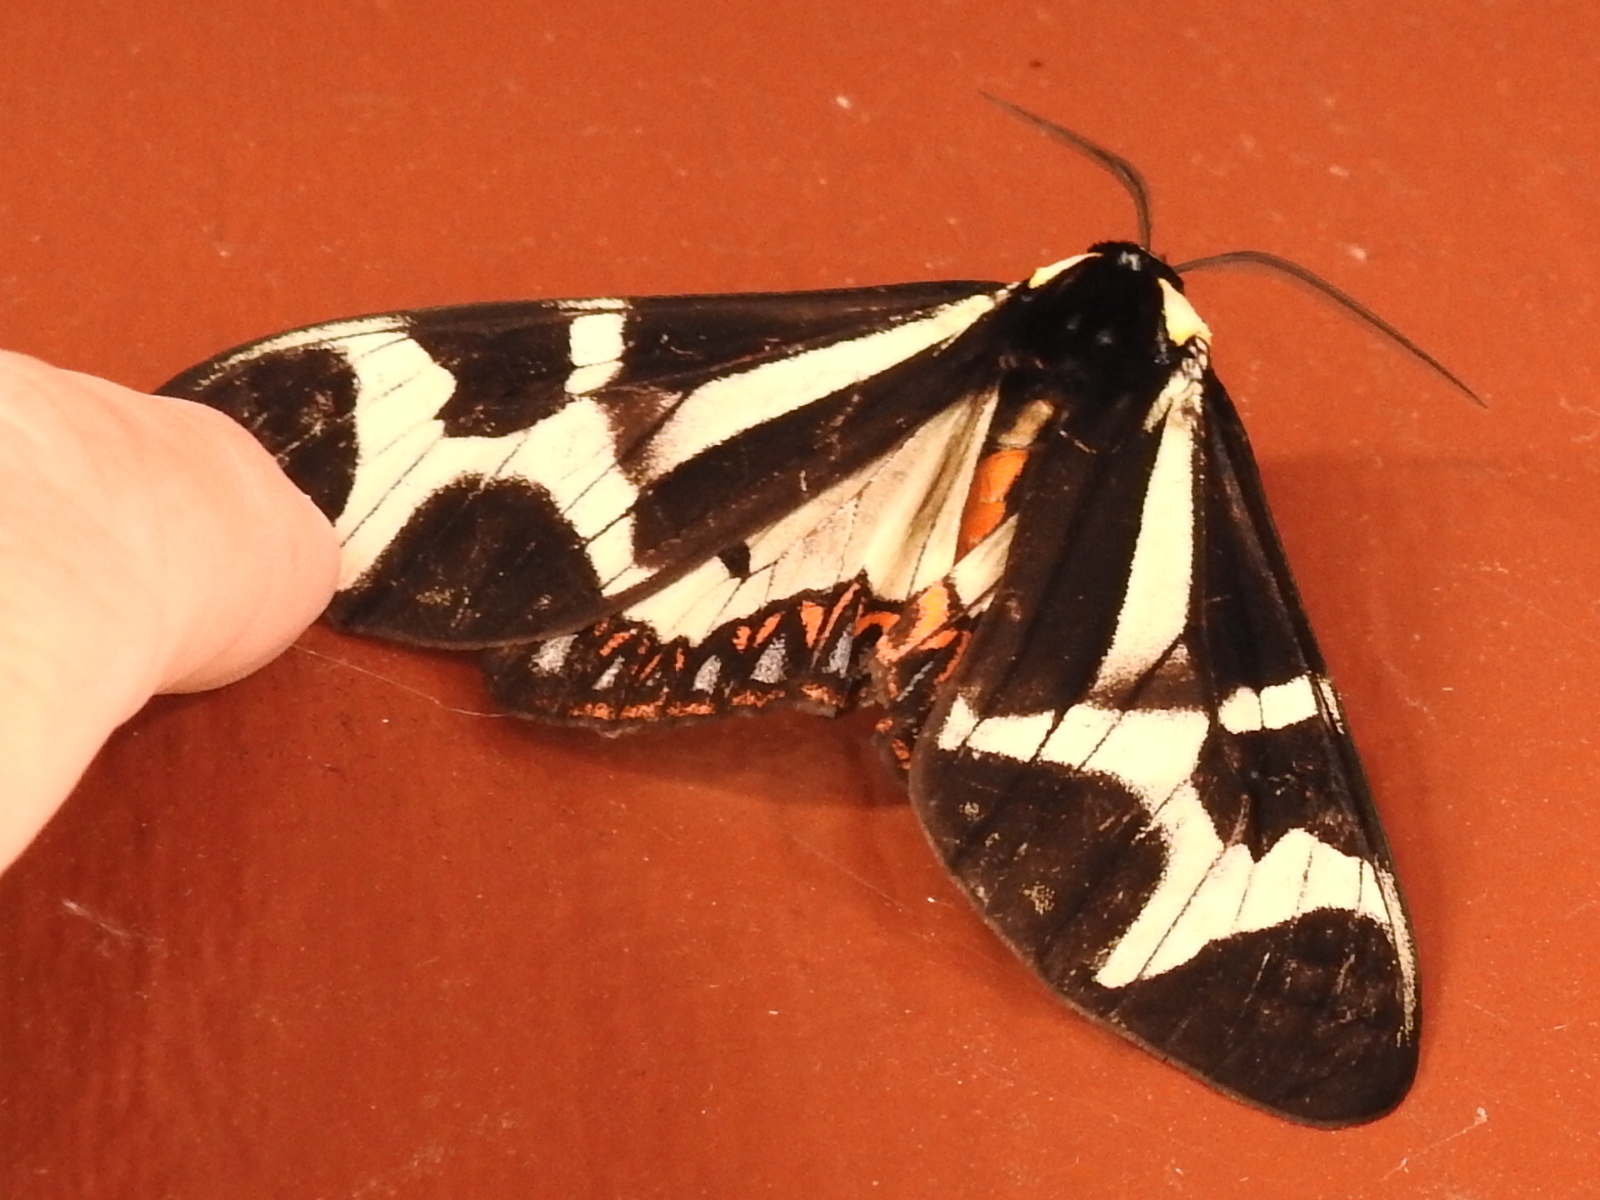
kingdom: Animalia
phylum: Arthropoda
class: Insecta
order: Lepidoptera
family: Erebidae
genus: Dysschema
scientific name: Dysschema howardi
